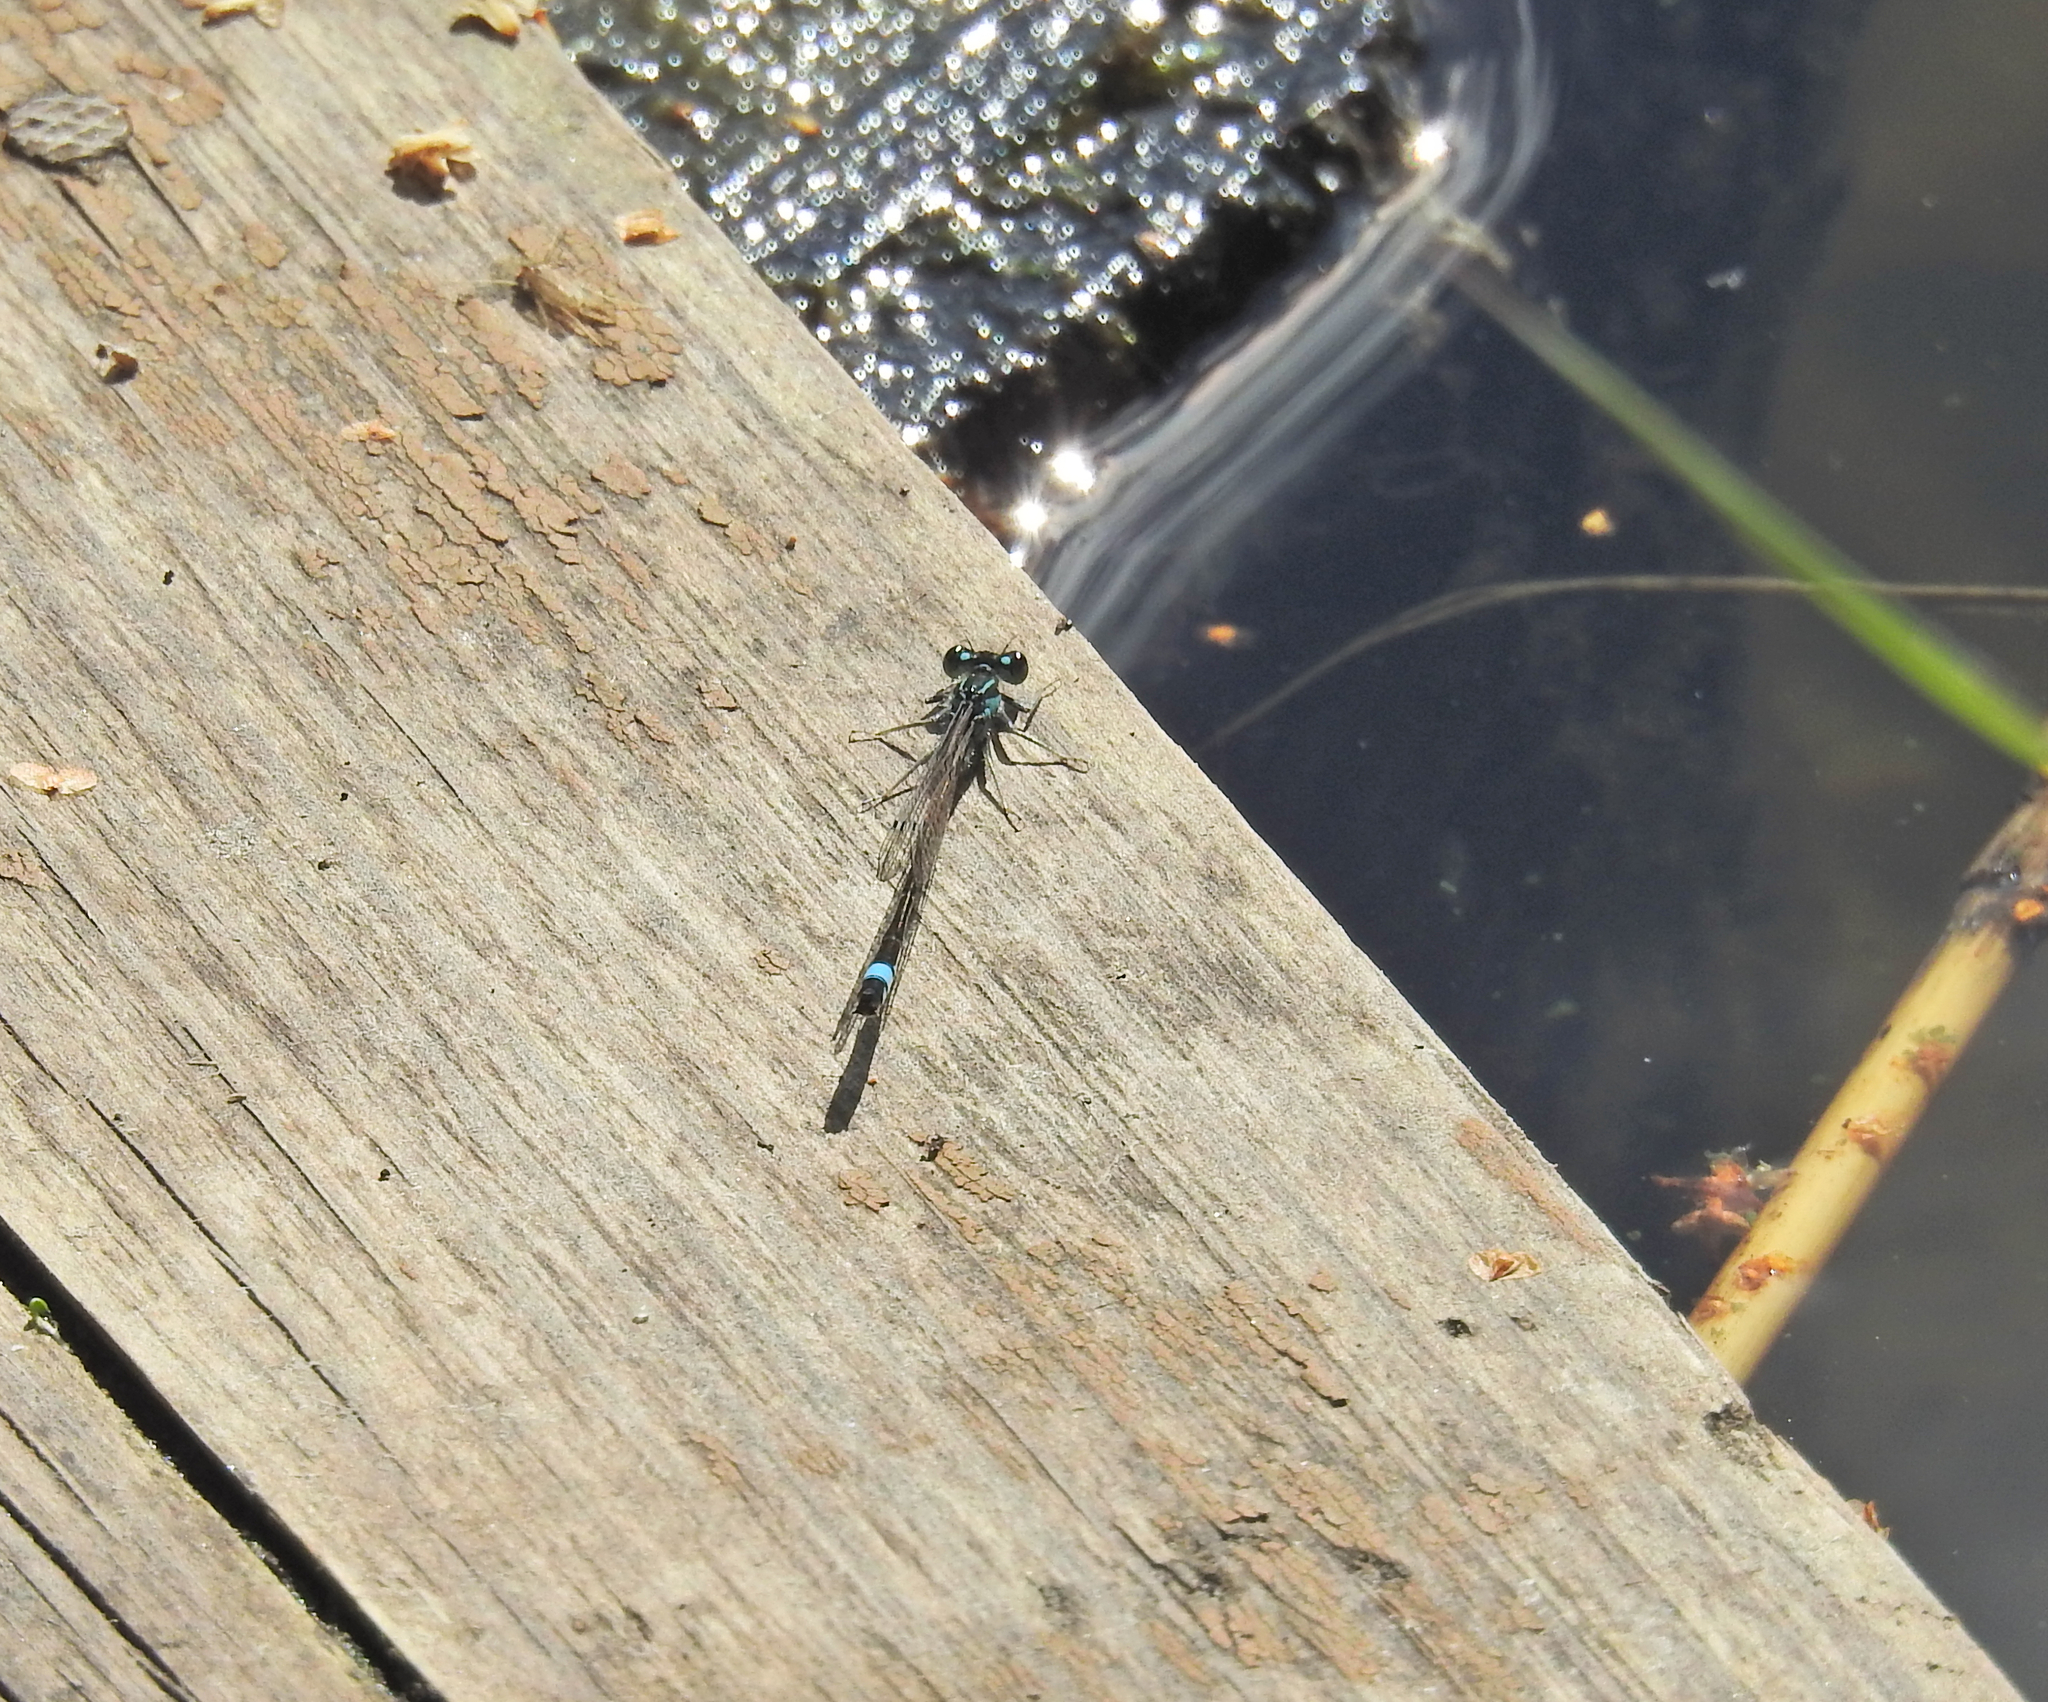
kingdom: Animalia
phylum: Arthropoda
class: Insecta
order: Odonata
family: Coenagrionidae
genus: Ischnura
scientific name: Ischnura elegans
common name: Blue-tailed damselfly
